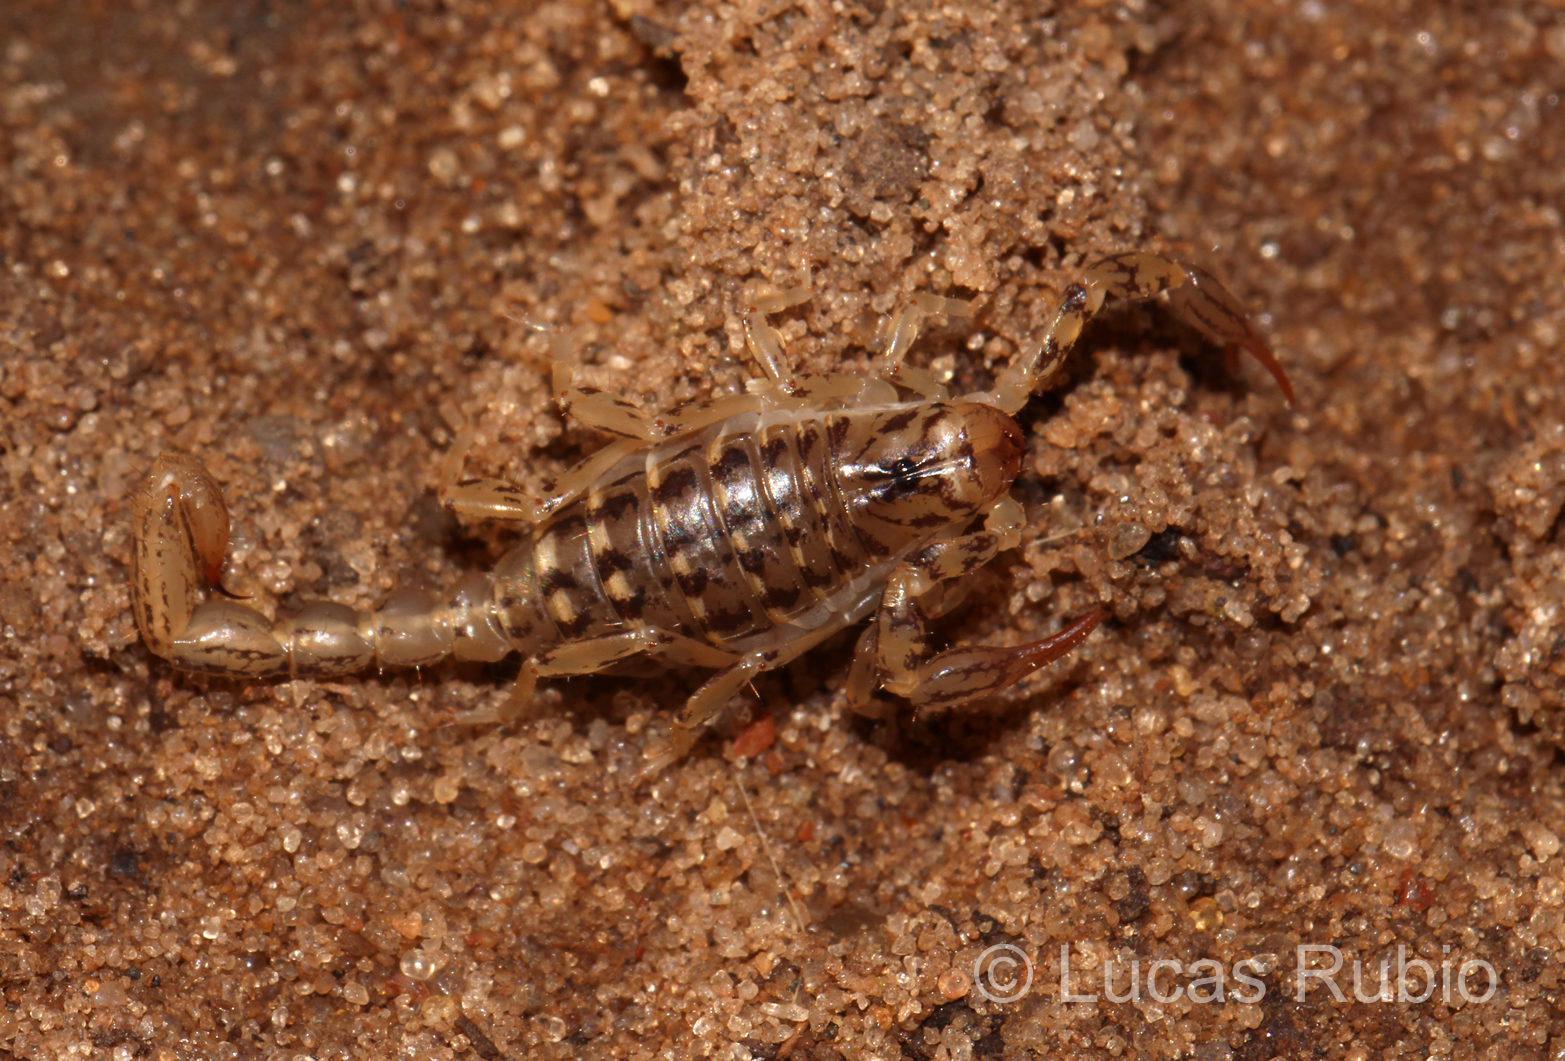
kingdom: Animalia
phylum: Arthropoda
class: Arachnida
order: Scorpiones
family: Bothriuridae
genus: Urophonius
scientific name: Urophonius brachycentrus
